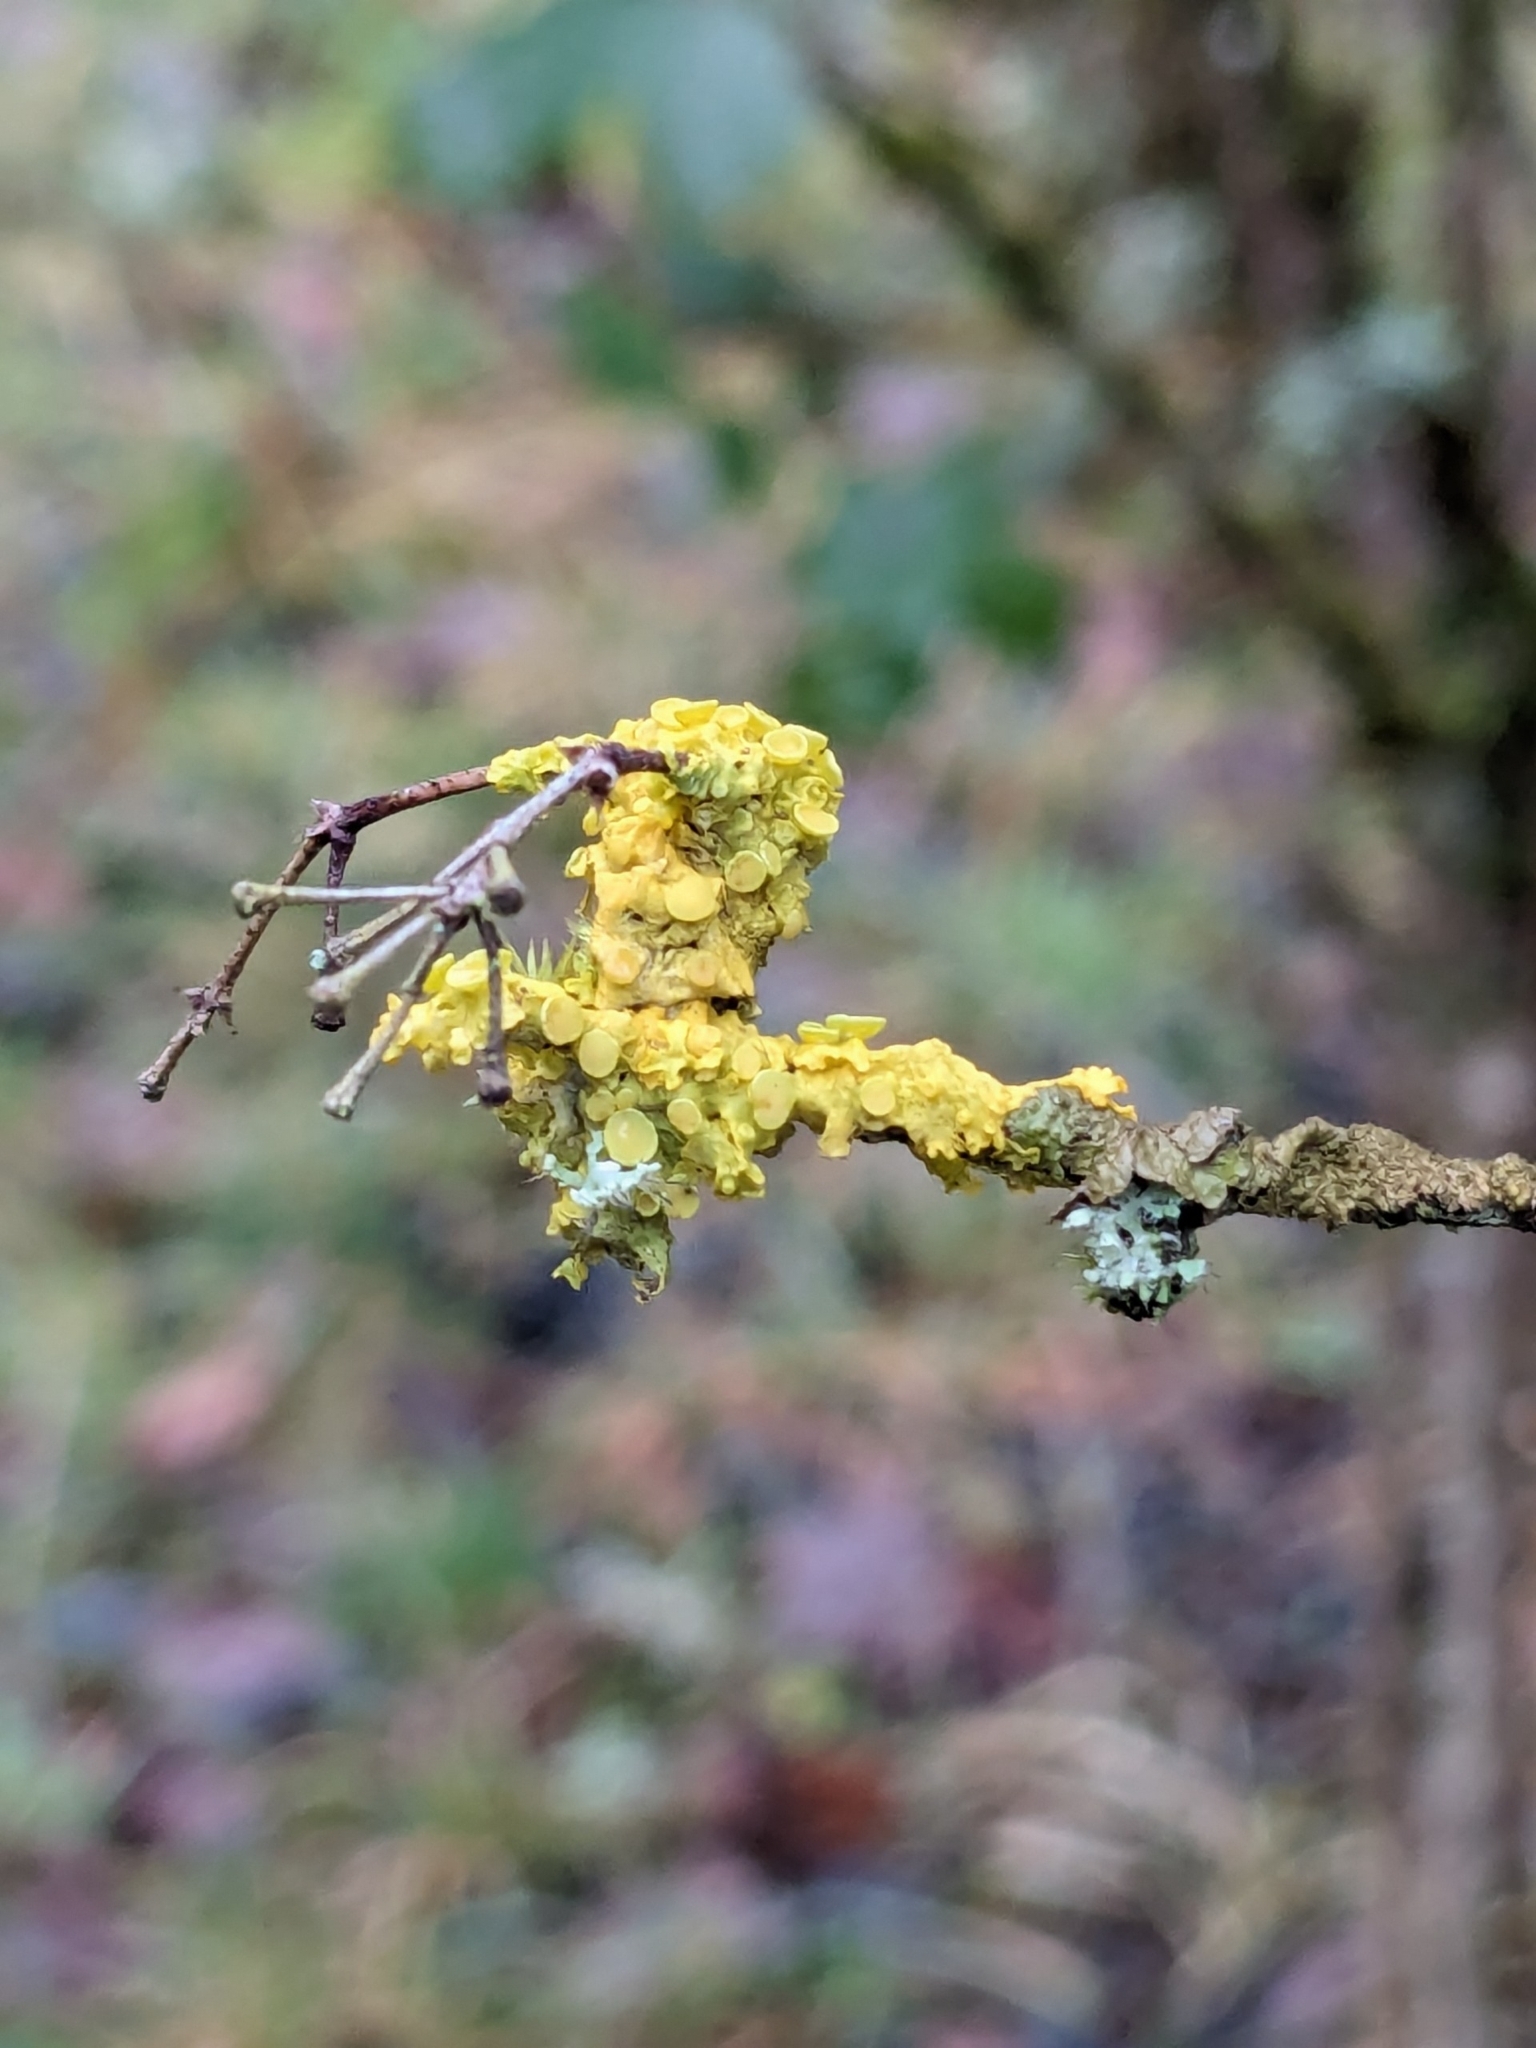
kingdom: Fungi
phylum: Ascomycota
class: Lecanoromycetes
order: Teloschistales
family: Teloschistaceae
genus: Xanthoria
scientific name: Xanthoria parietina
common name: Common orange lichen
